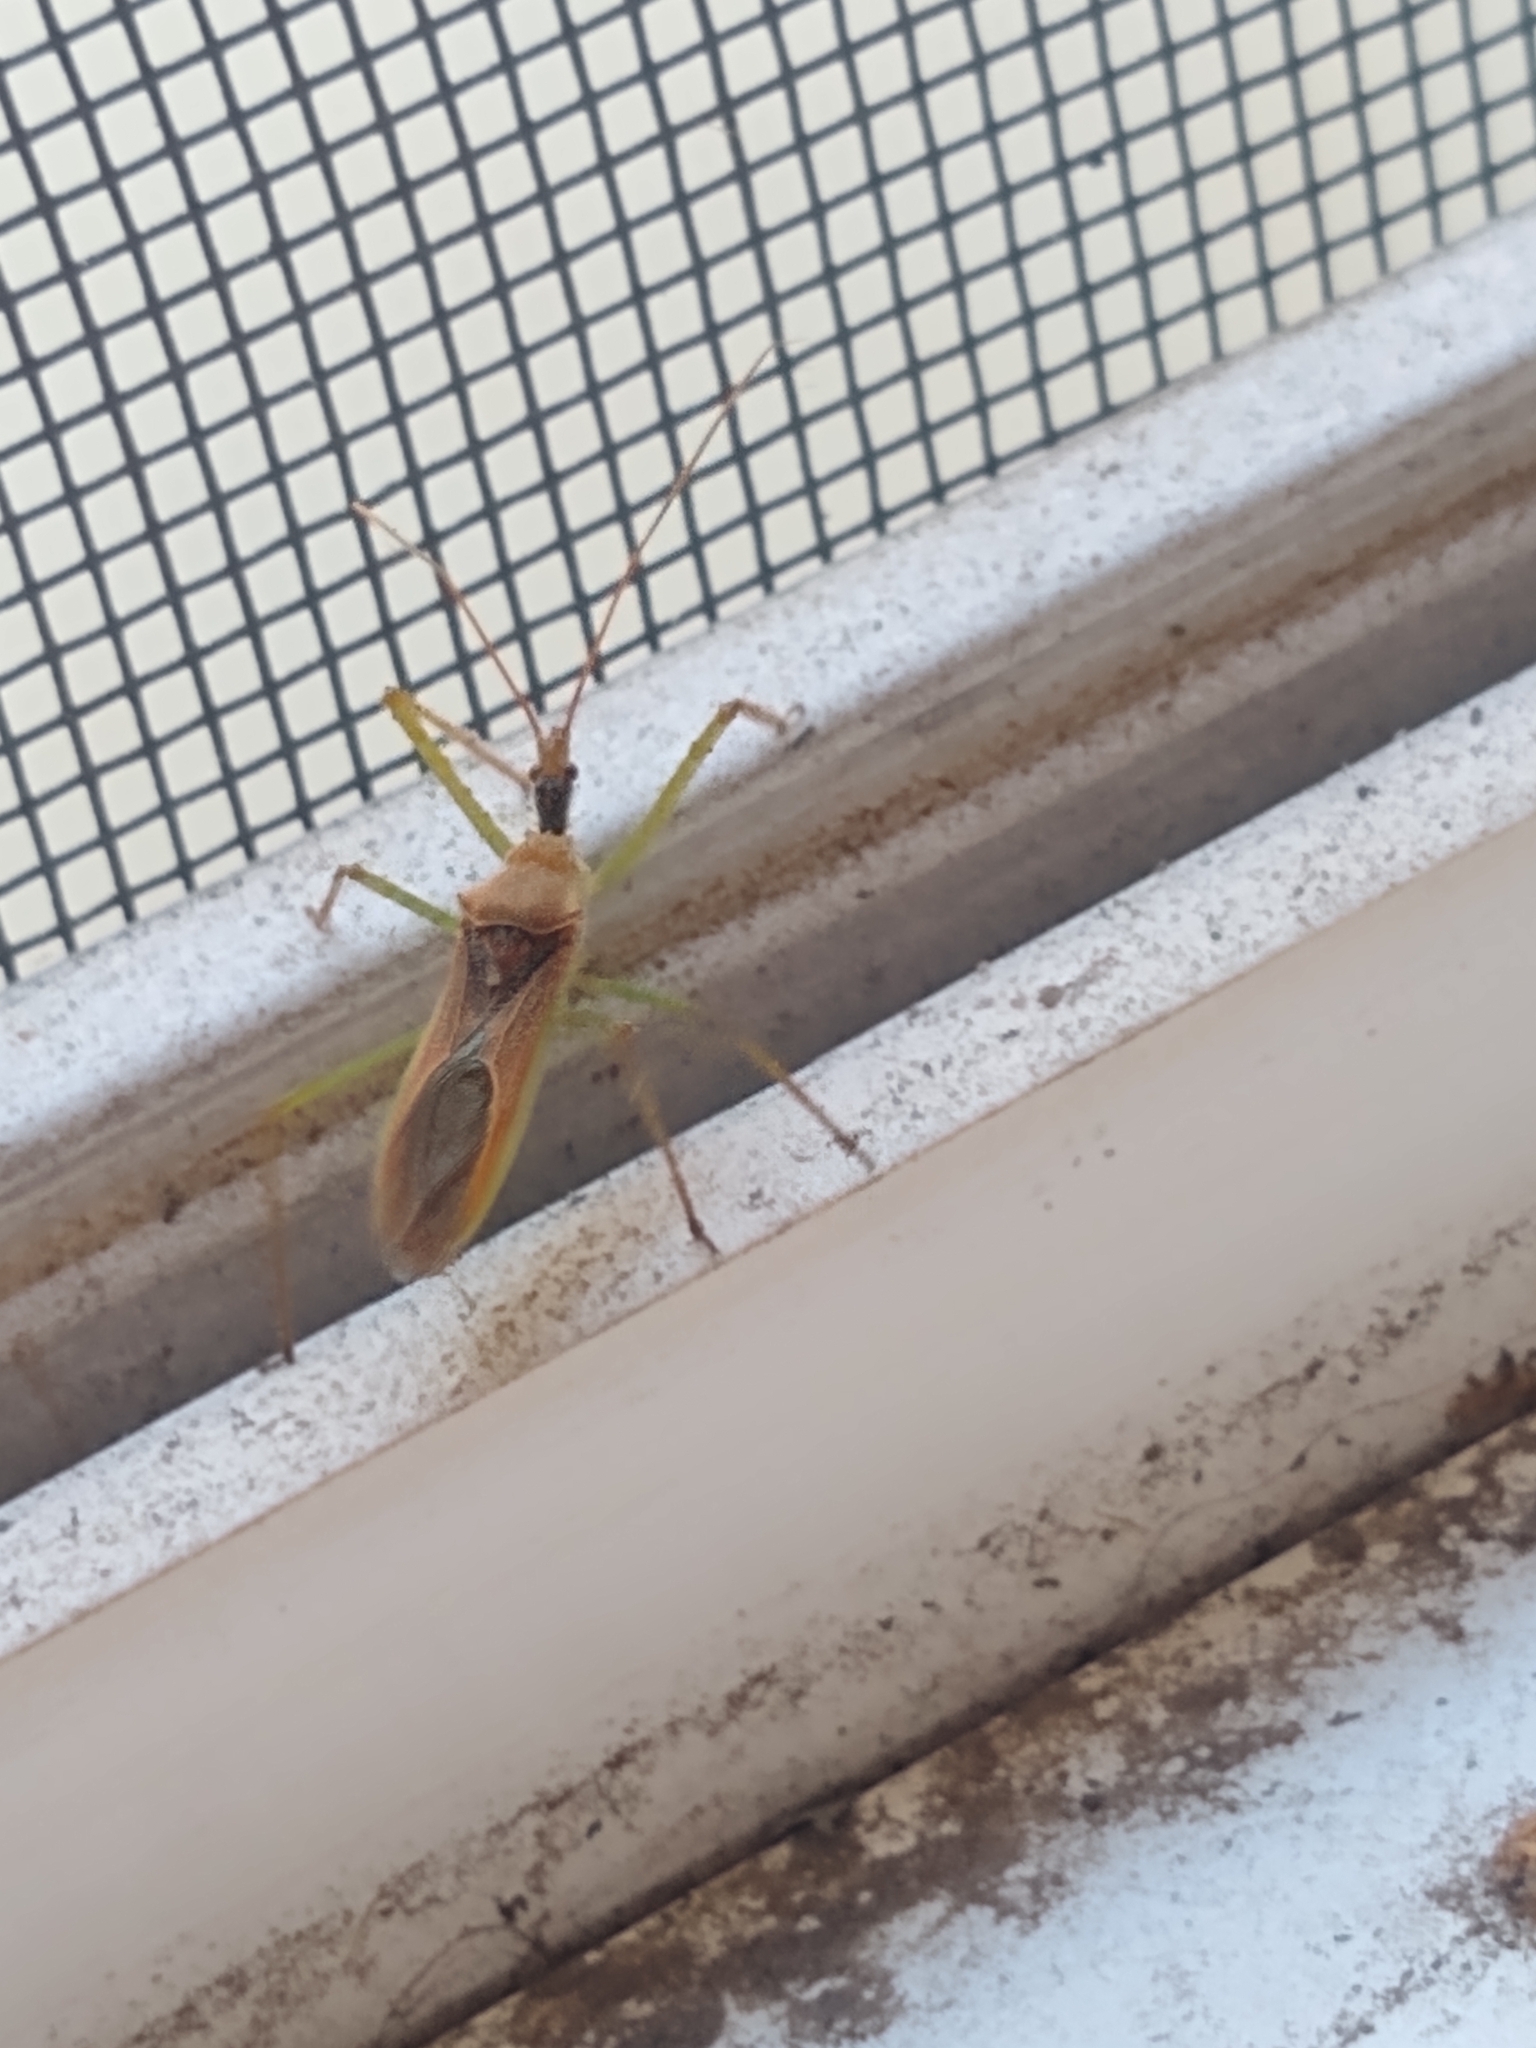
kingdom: Animalia
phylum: Arthropoda
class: Insecta
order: Hemiptera
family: Reduviidae
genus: Zelus
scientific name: Zelus renardii
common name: Assassin bug
